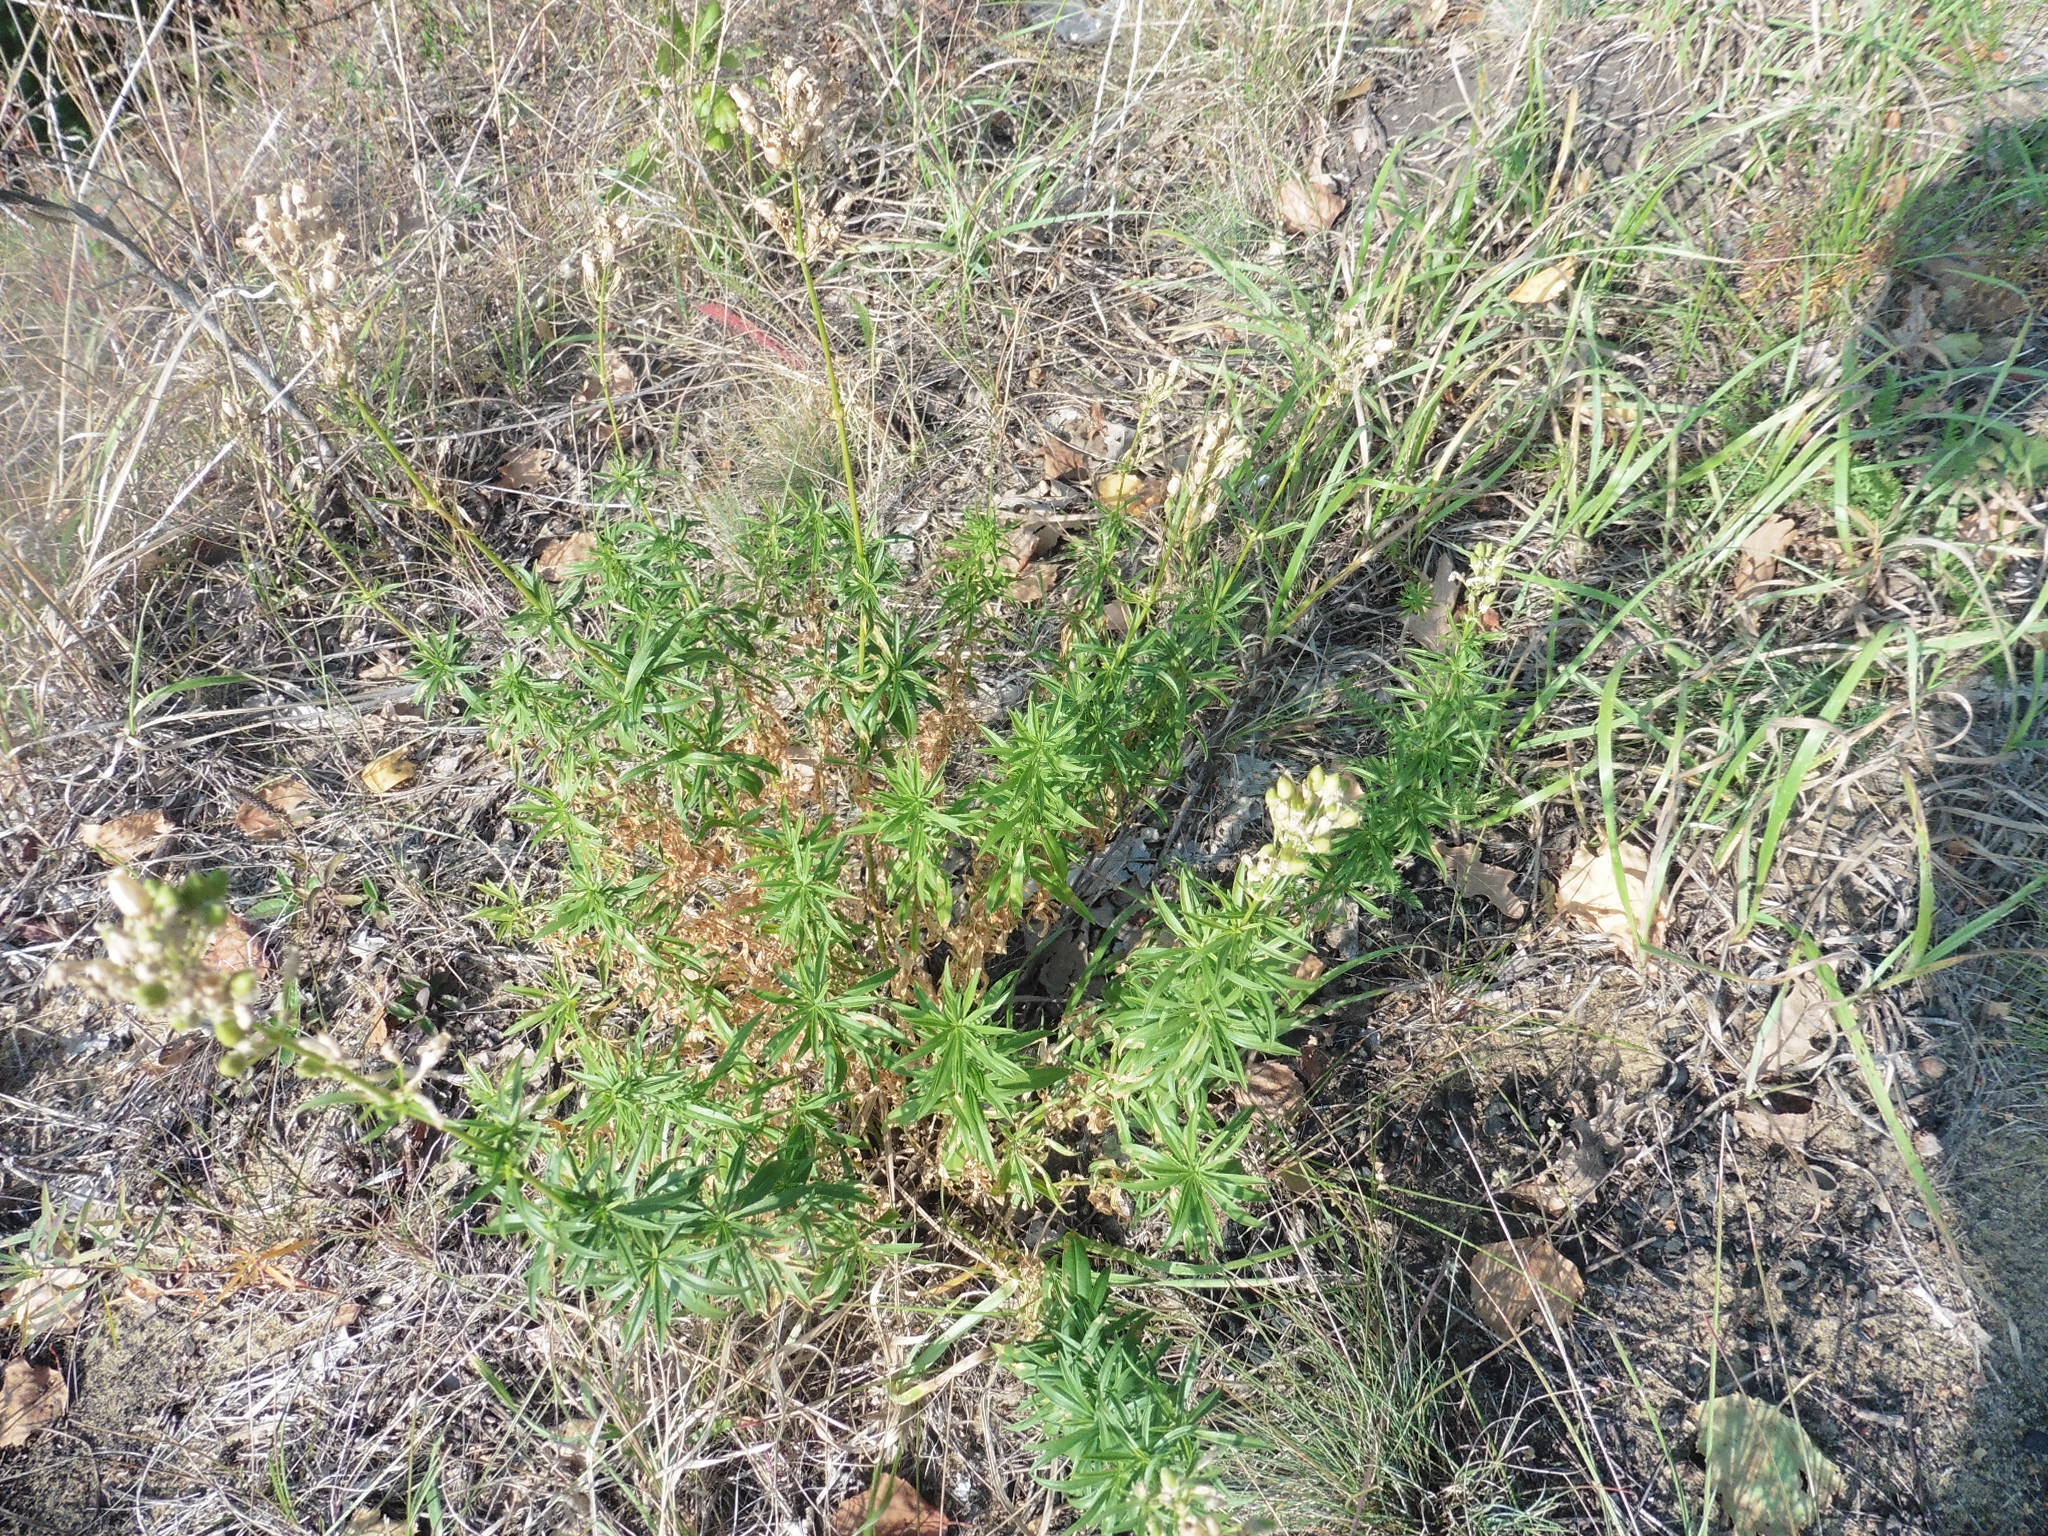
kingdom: Plantae
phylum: Tracheophyta
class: Magnoliopsida
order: Caryophyllales
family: Caryophyllaceae
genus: Silene
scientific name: Silene sibirica
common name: Siberian catchfly
